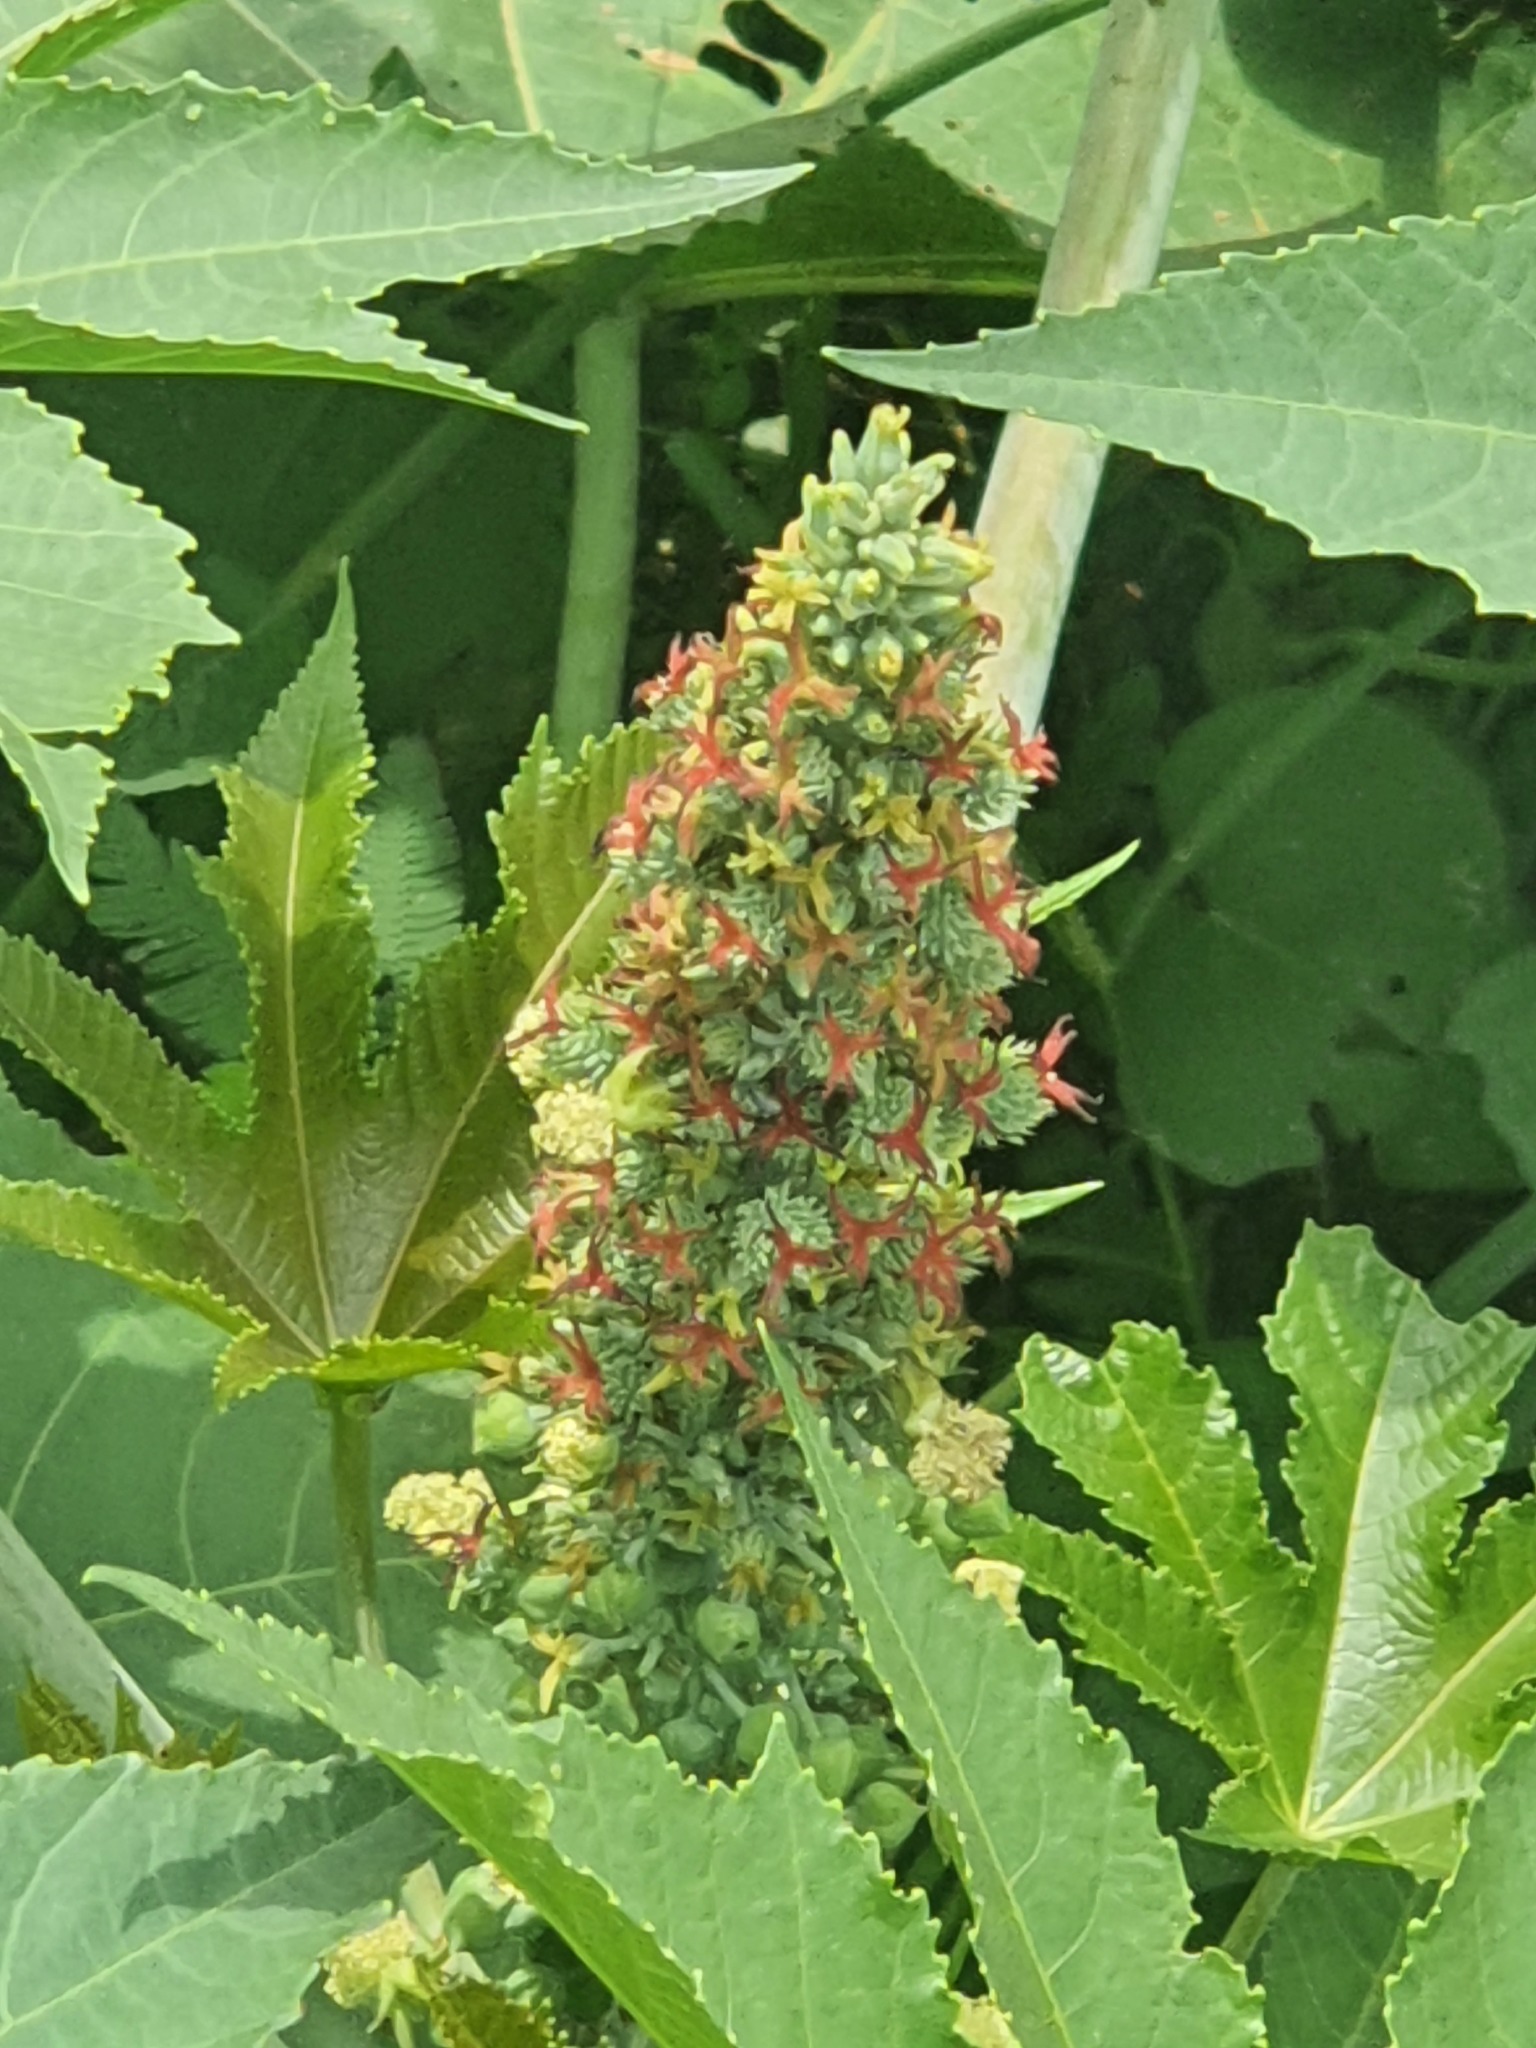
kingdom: Plantae
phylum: Tracheophyta
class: Magnoliopsida
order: Malpighiales
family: Euphorbiaceae
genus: Ricinus
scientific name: Ricinus communis
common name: Castor-oil-plant
